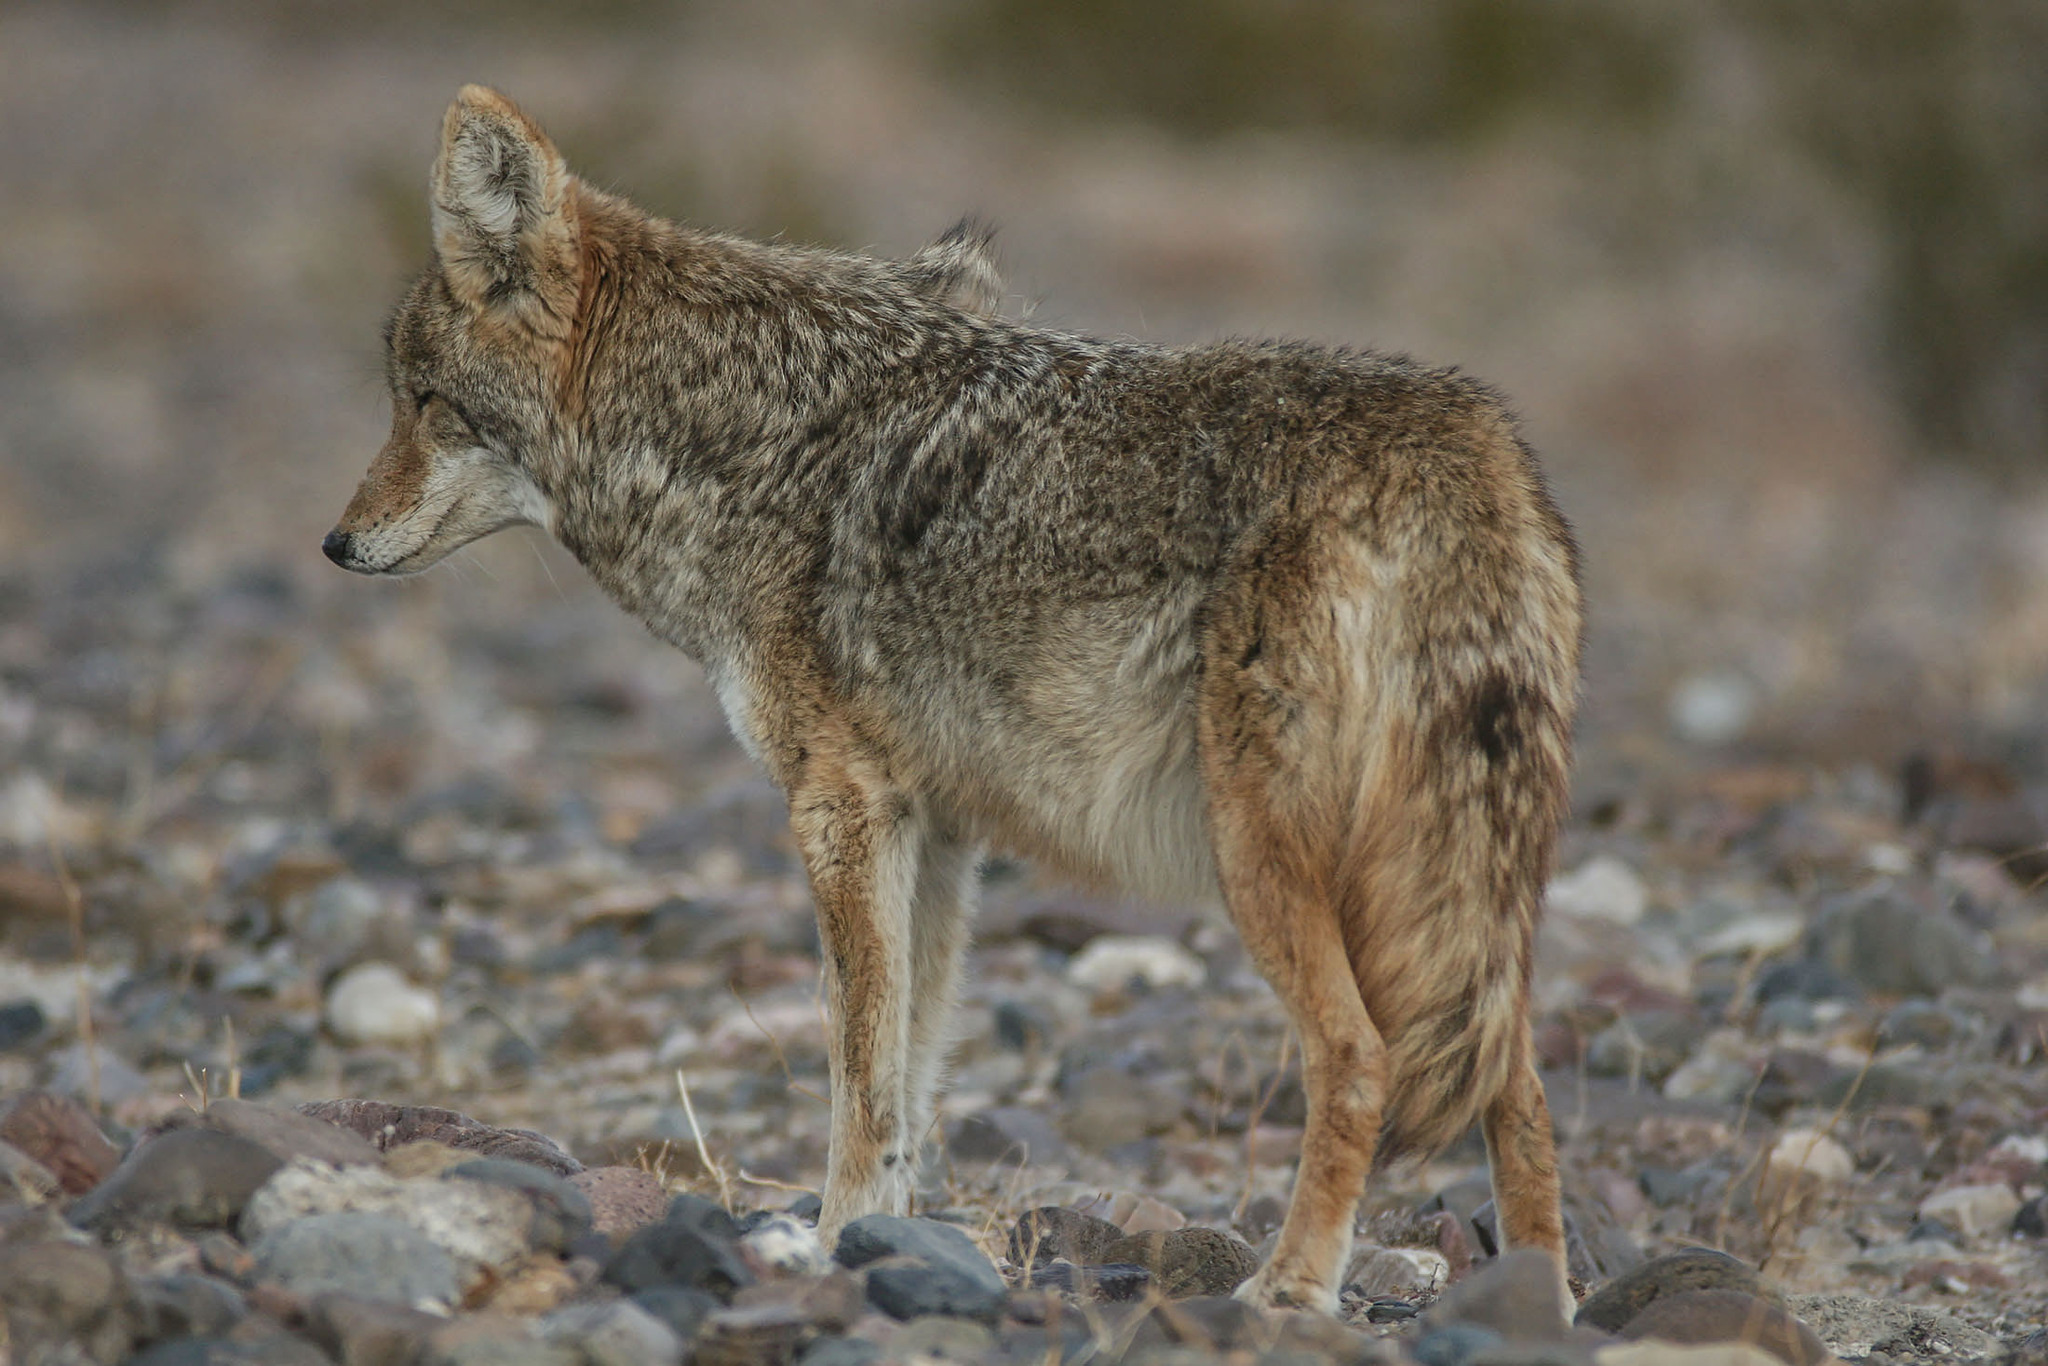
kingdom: Animalia
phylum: Chordata
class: Mammalia
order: Carnivora
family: Canidae
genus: Canis
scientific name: Canis latrans
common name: Coyote
